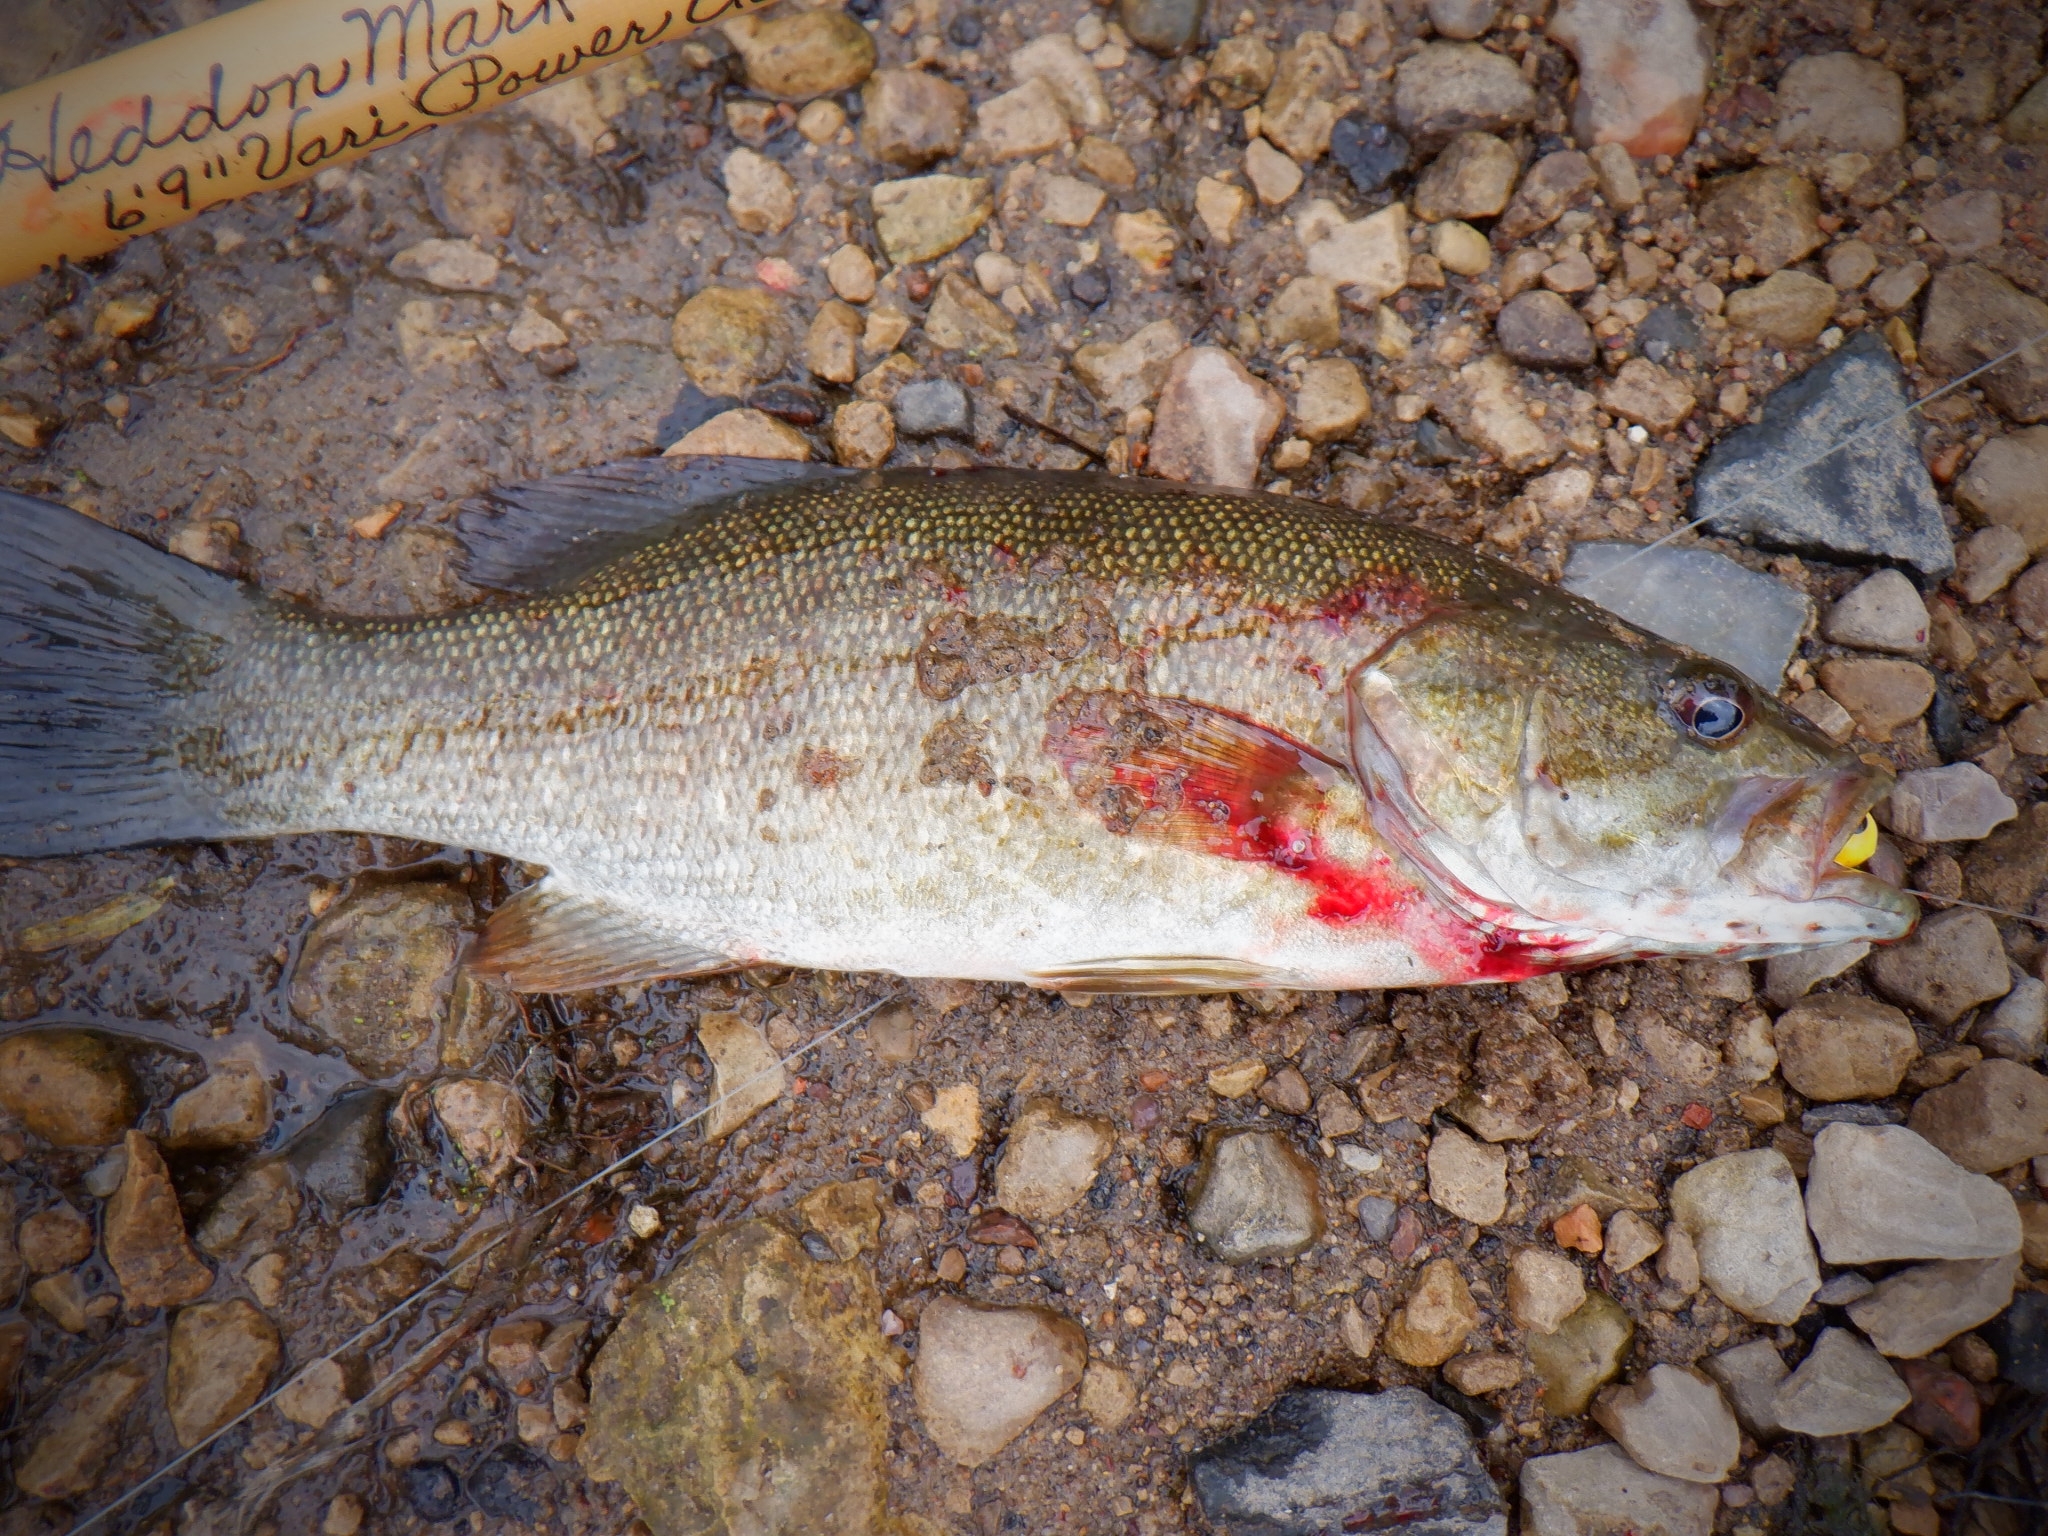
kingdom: Animalia
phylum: Chordata
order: Perciformes
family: Centrarchidae
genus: Micropterus
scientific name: Micropterus dolomieu
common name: Smallmouth bass
